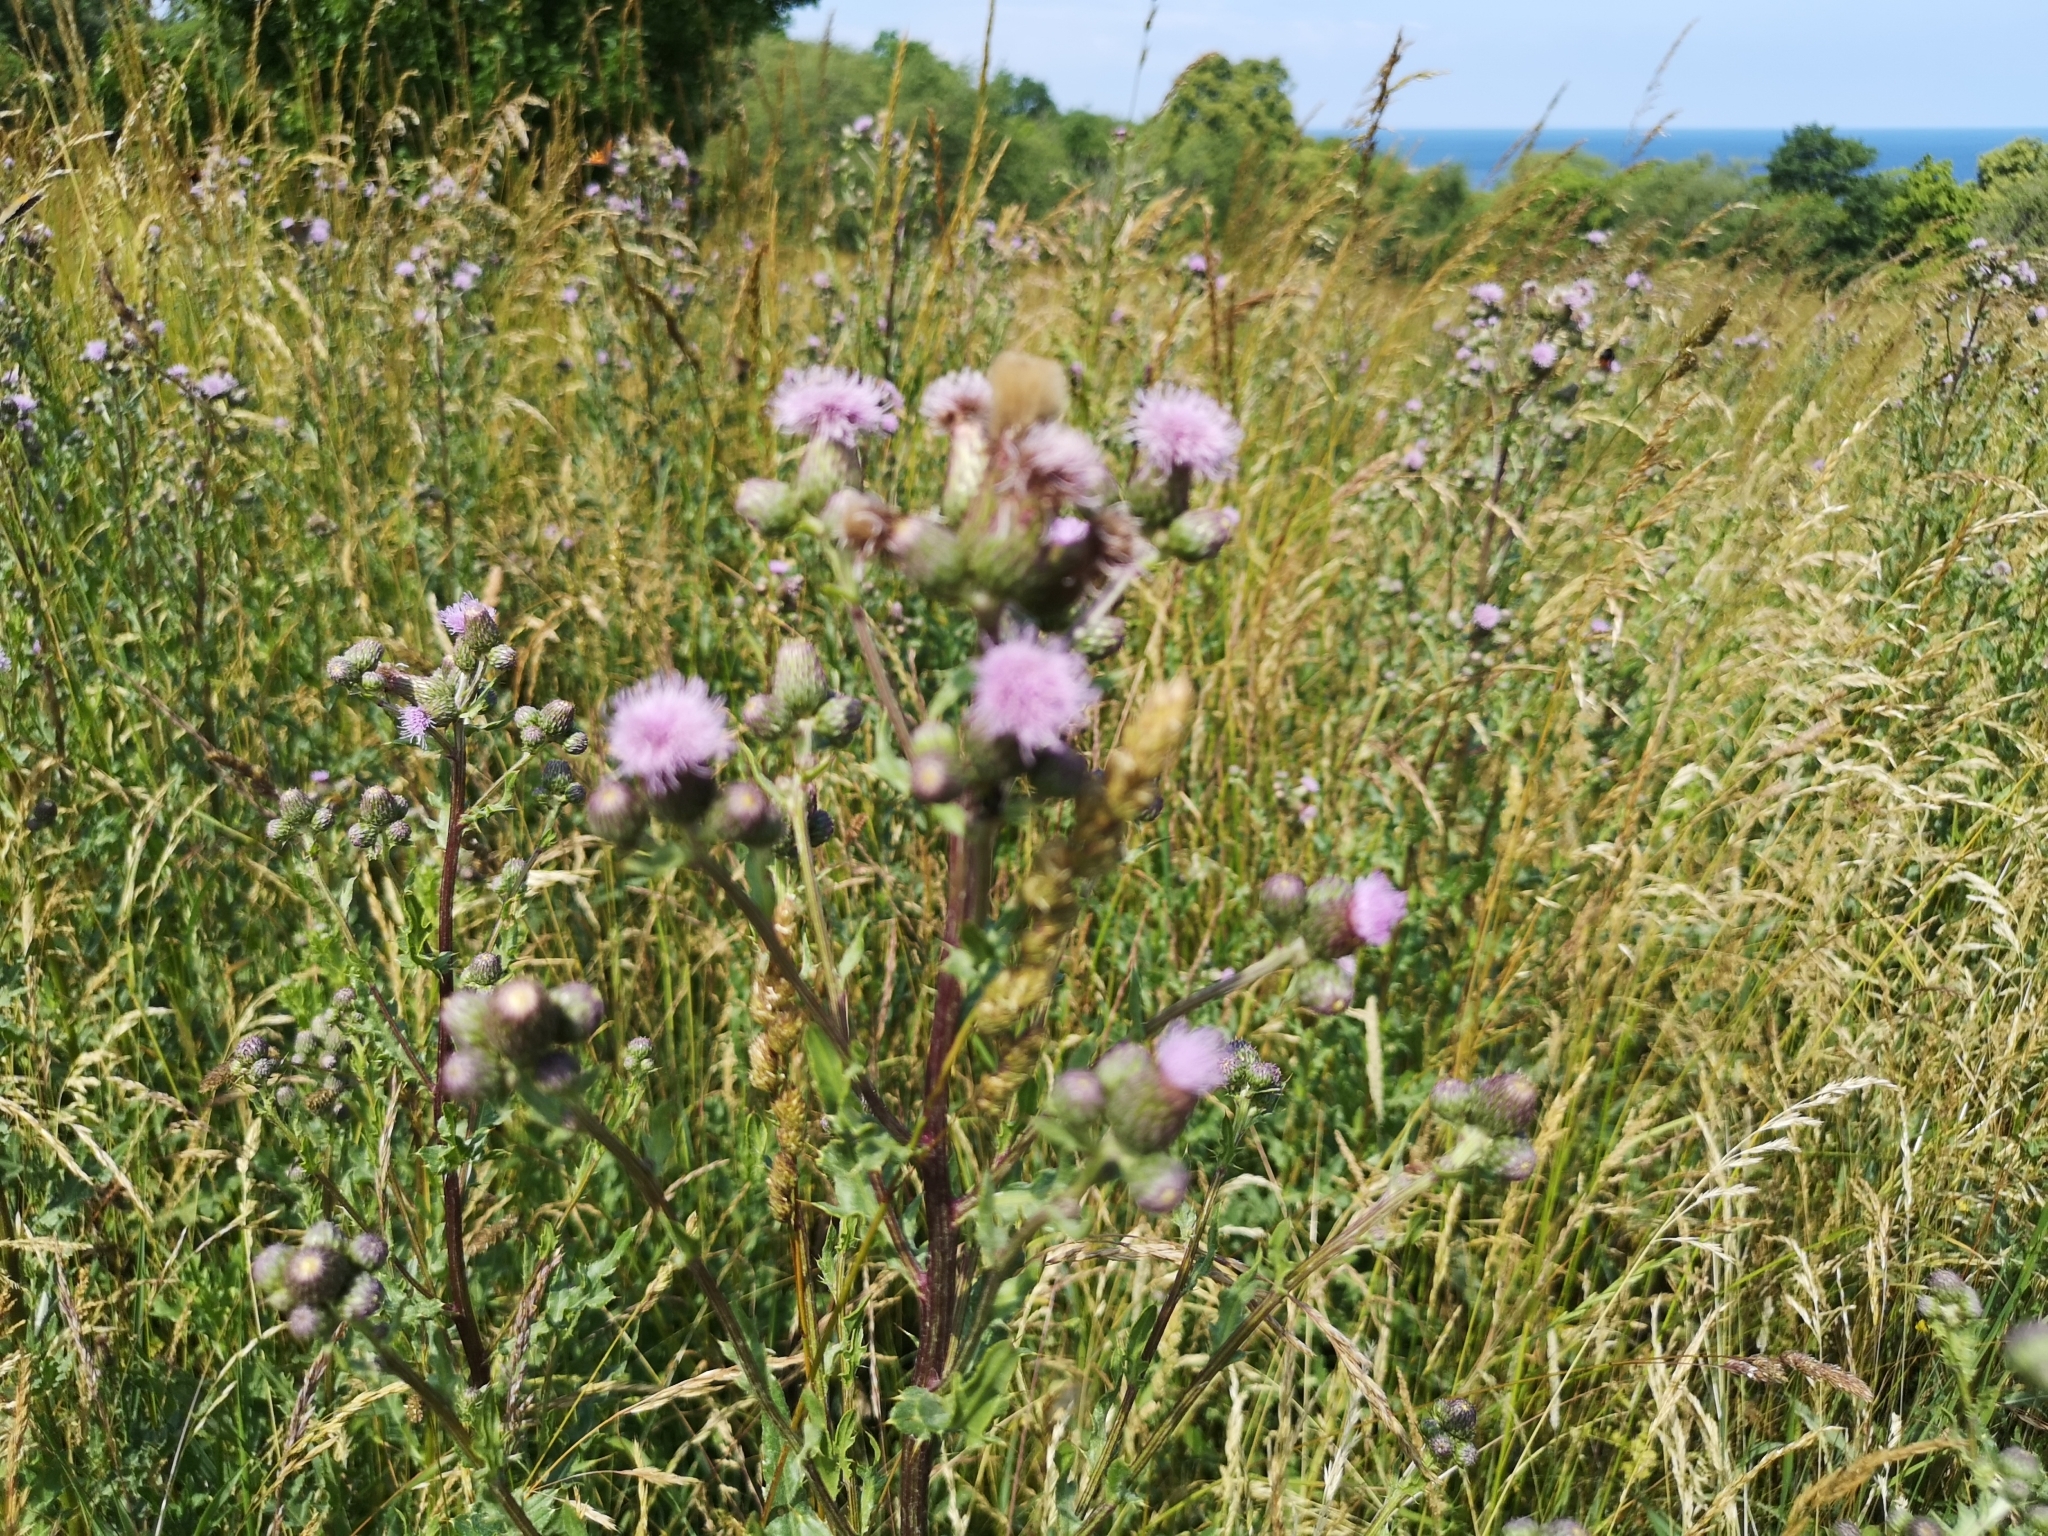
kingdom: Plantae
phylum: Tracheophyta
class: Magnoliopsida
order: Asterales
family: Asteraceae
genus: Cirsium
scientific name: Cirsium arvense
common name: Creeping thistle
